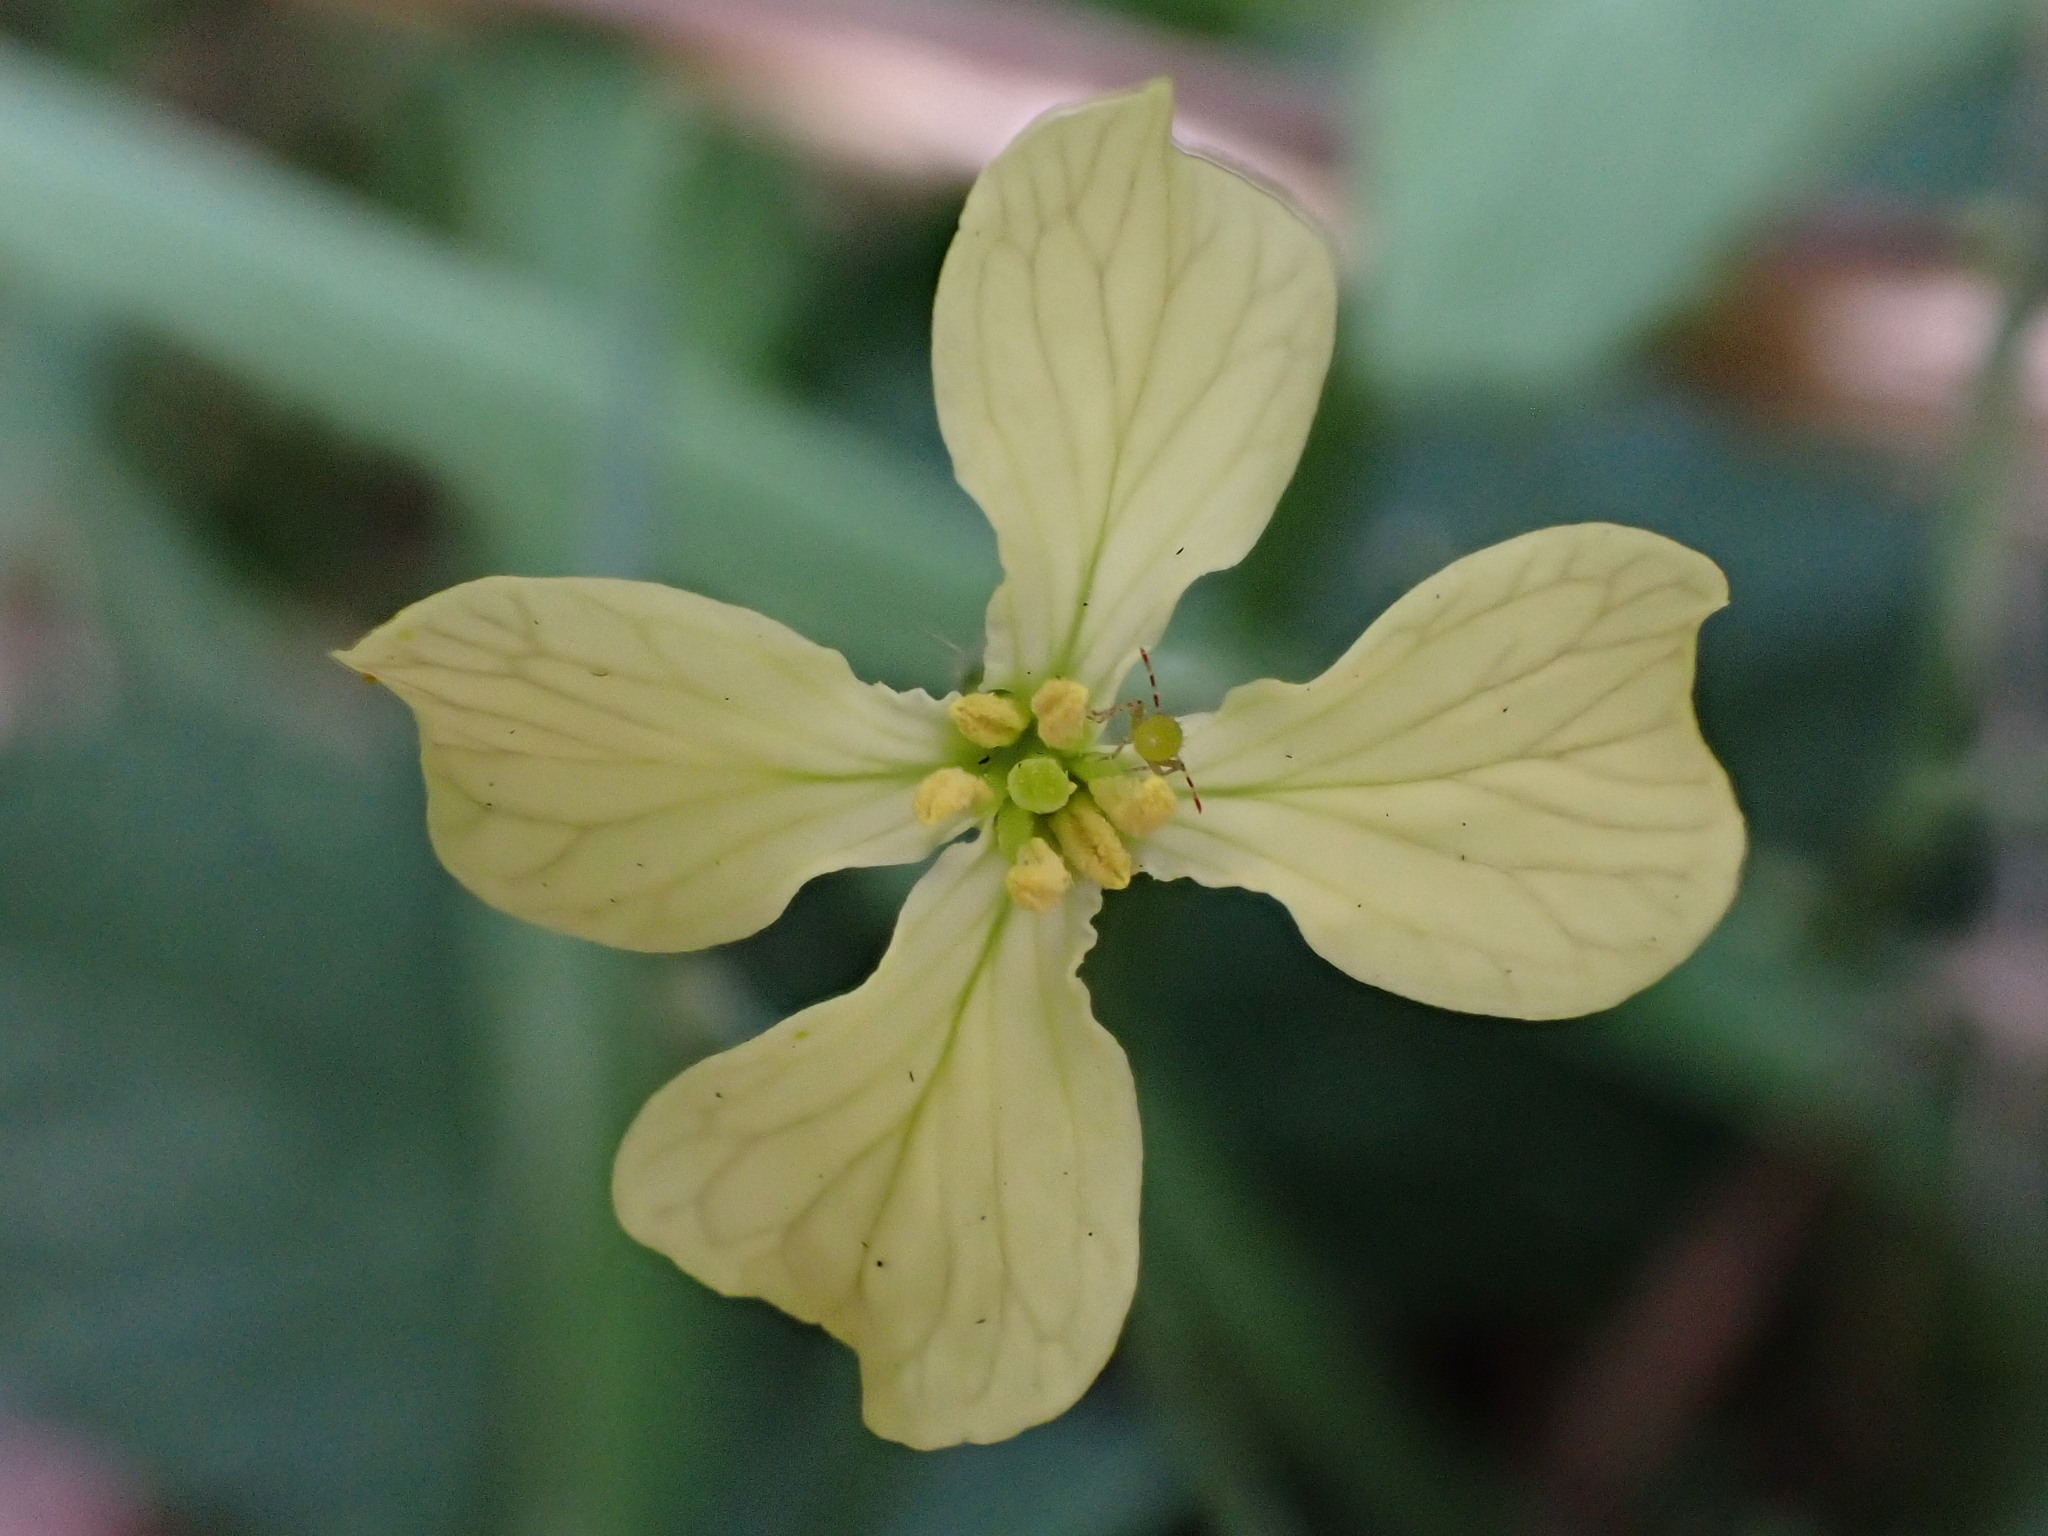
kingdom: Plantae
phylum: Tracheophyta
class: Magnoliopsida
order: Brassicales
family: Brassicaceae
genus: Raphanus
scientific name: Raphanus raphanistrum
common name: Wild radish
